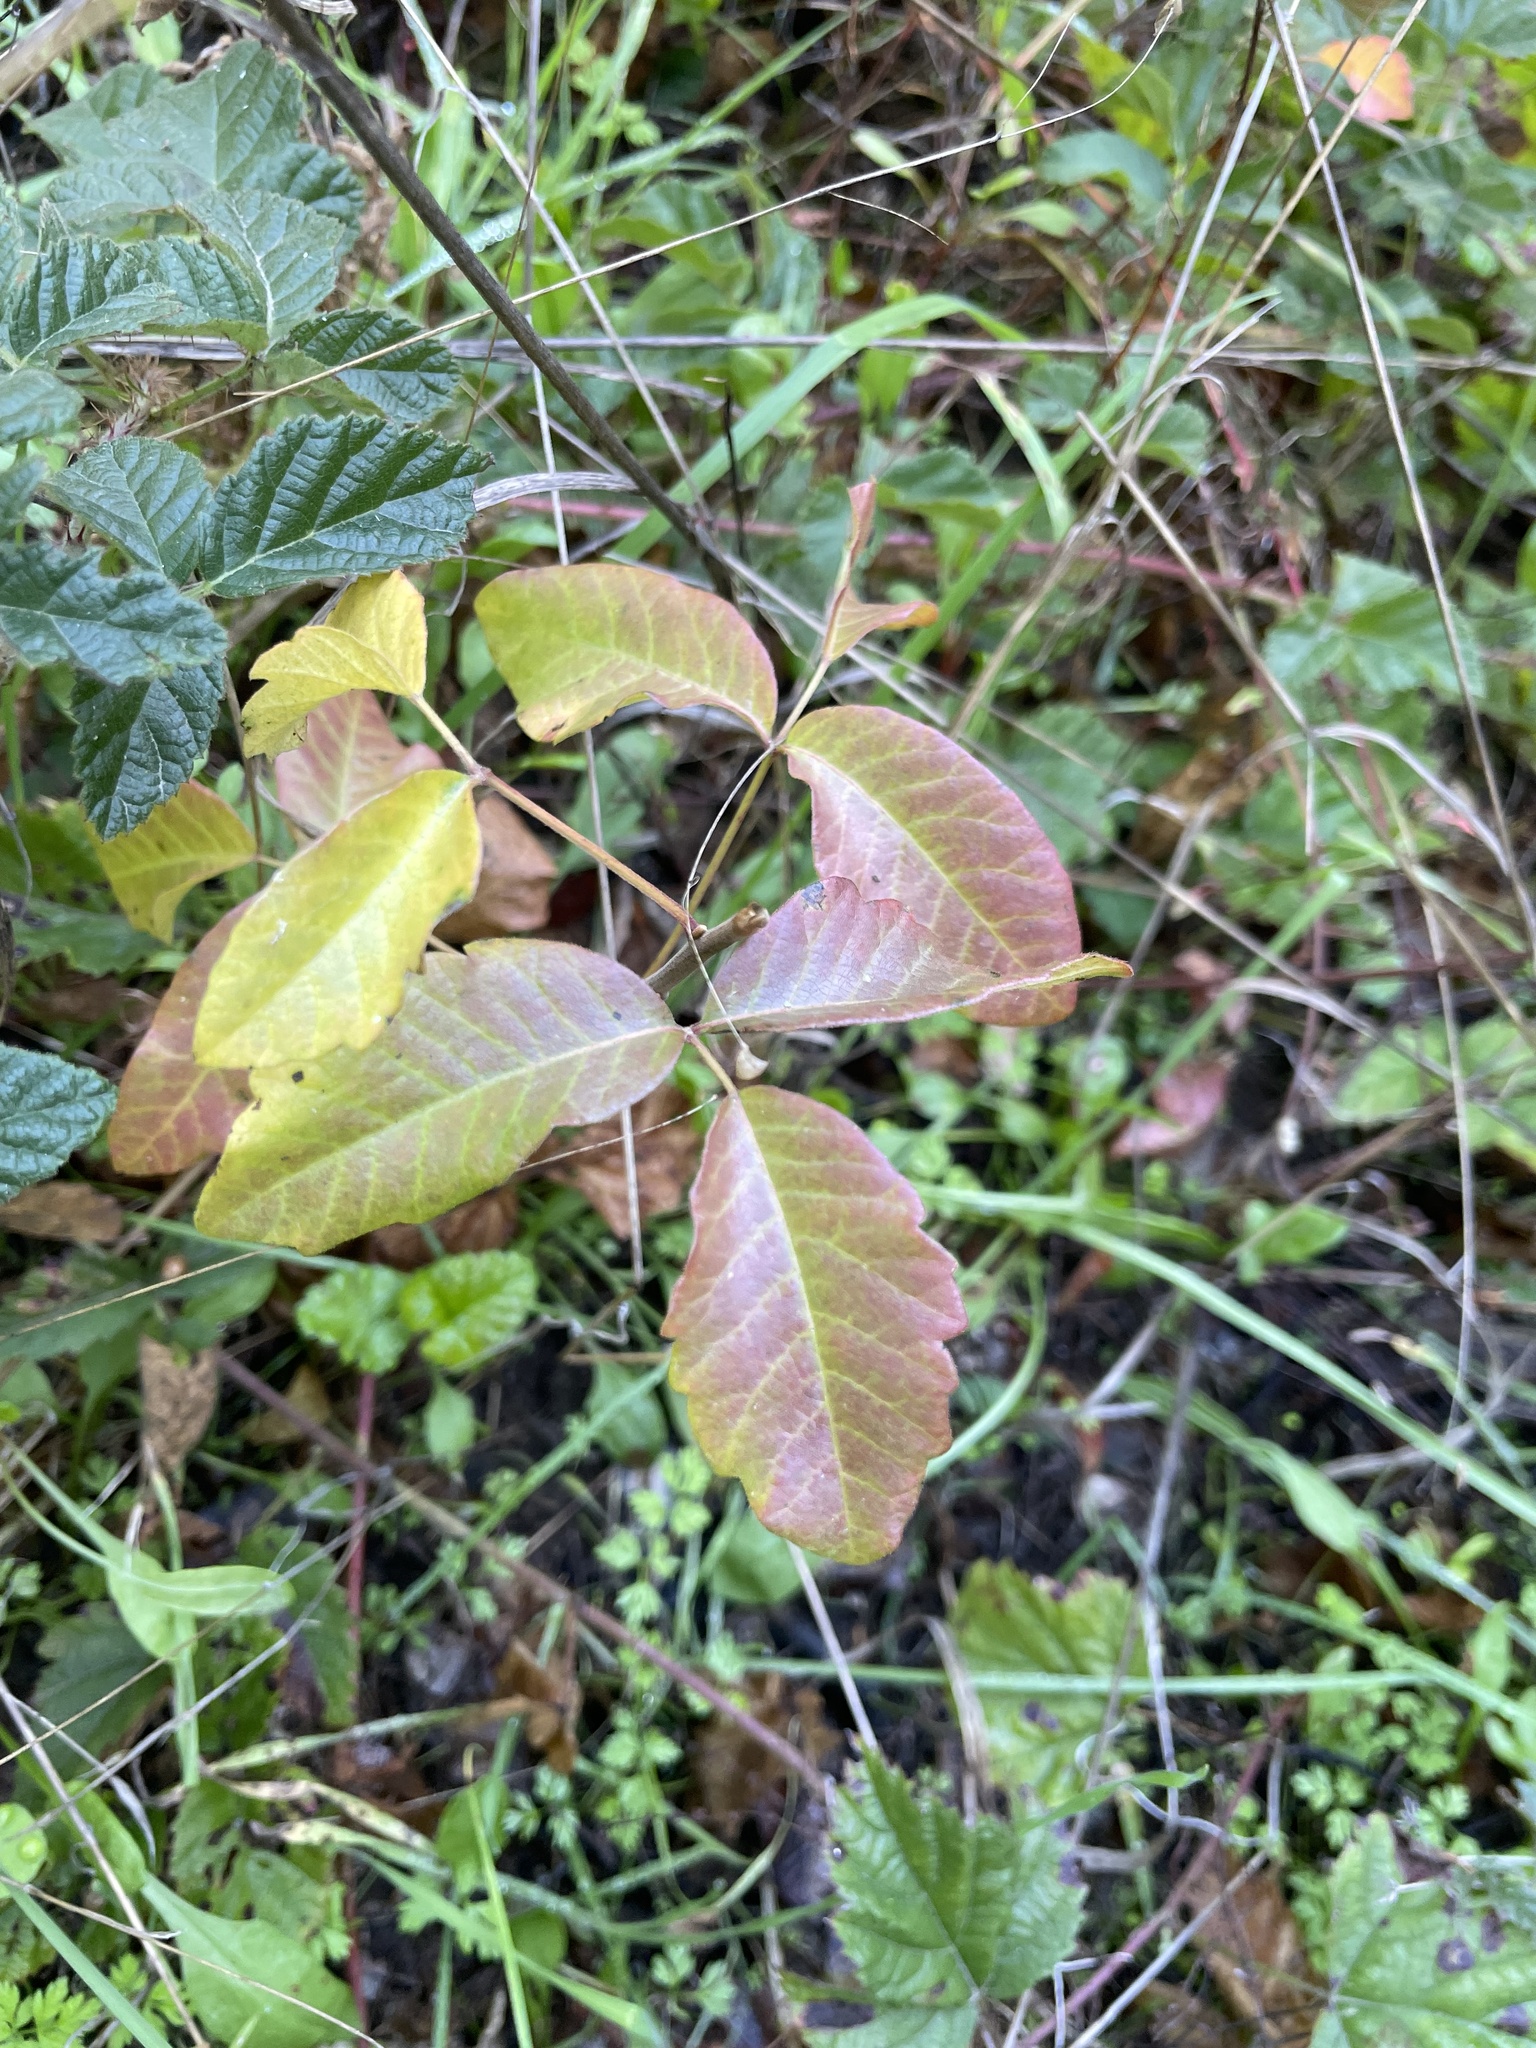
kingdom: Plantae
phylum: Tracheophyta
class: Magnoliopsida
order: Sapindales
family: Anacardiaceae
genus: Toxicodendron
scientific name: Toxicodendron diversilobum
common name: Pacific poison-oak
